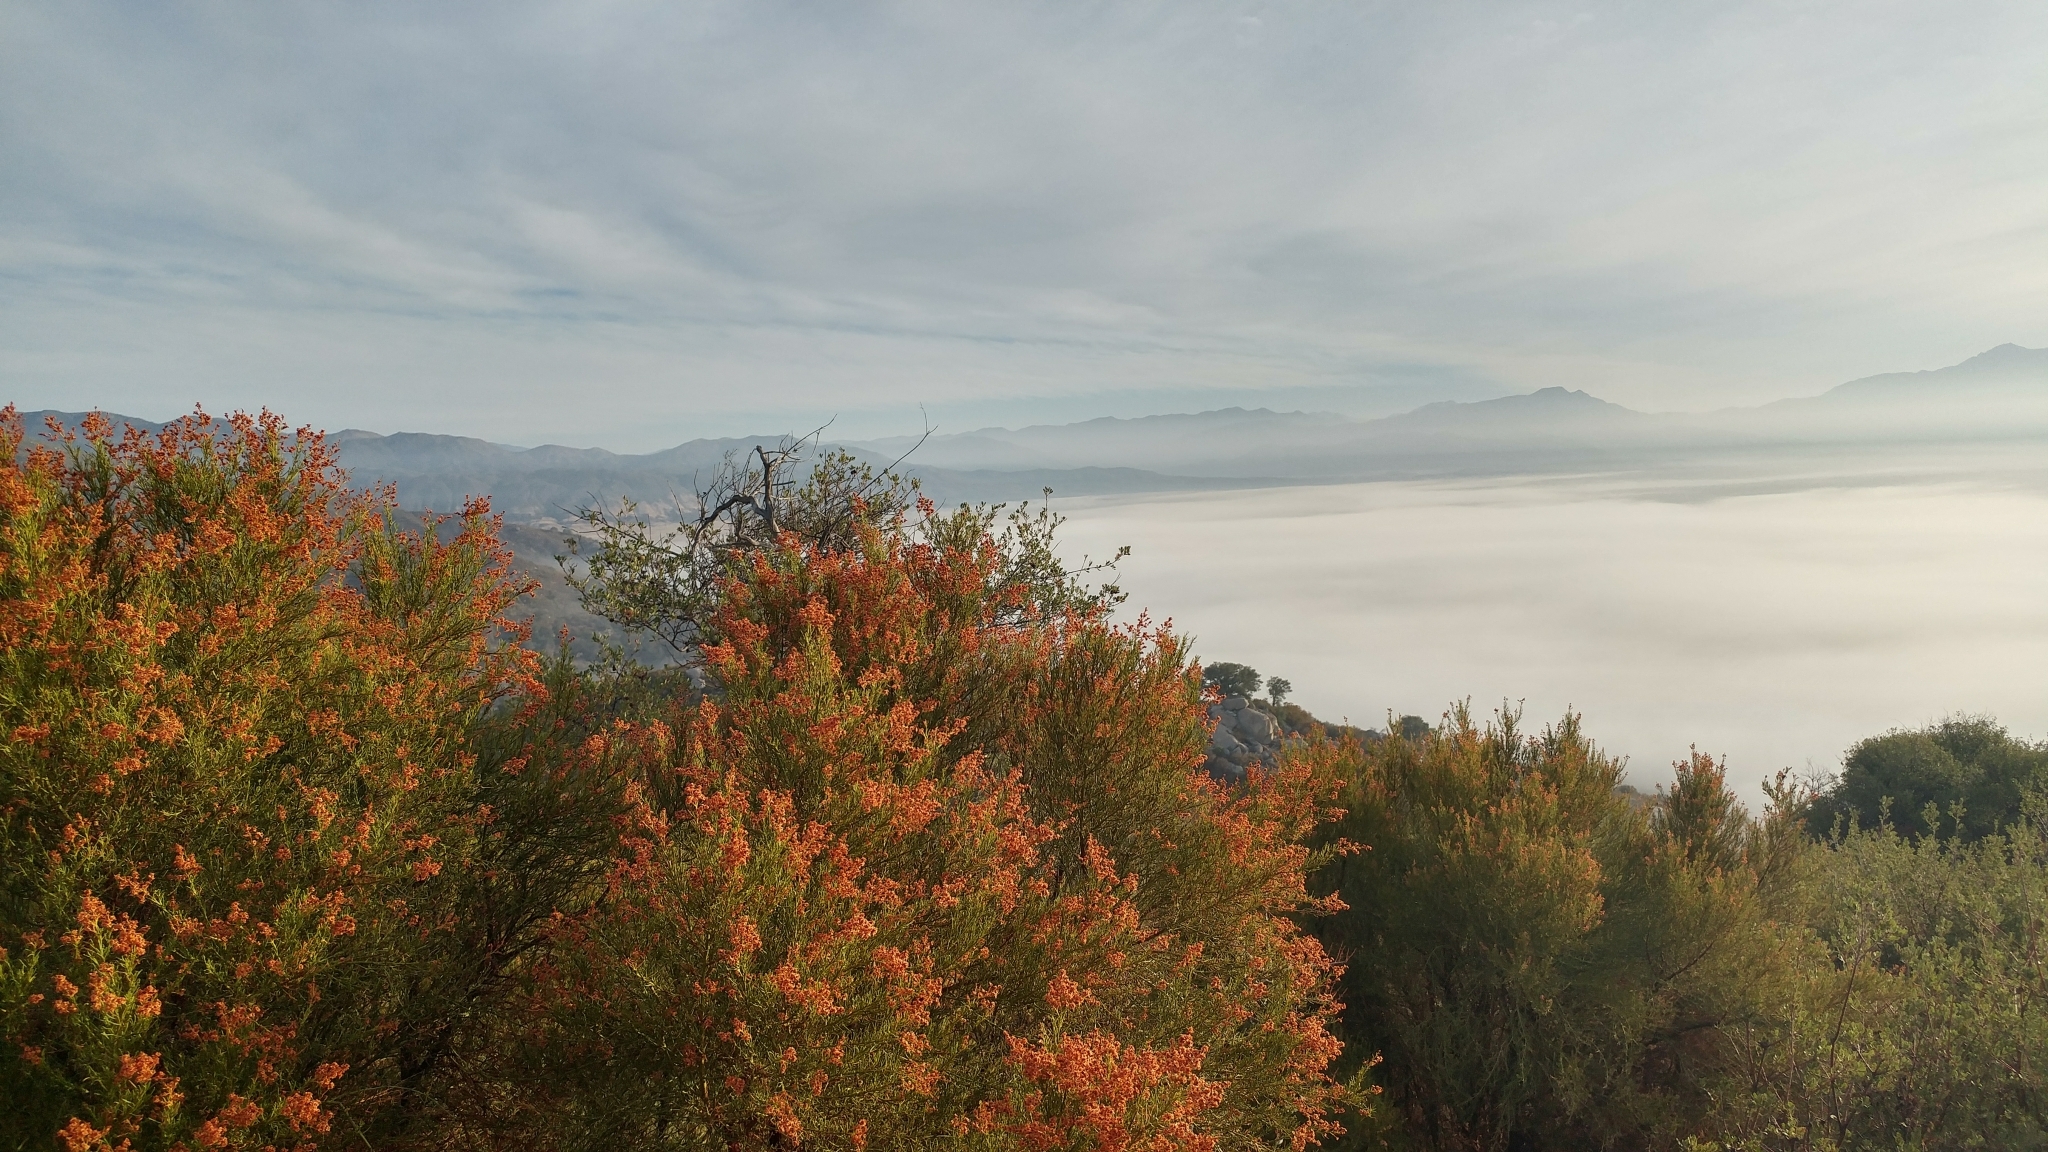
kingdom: Plantae
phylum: Tracheophyta
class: Magnoliopsida
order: Rosales
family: Rosaceae
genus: Adenostoma
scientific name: Adenostoma sparsifolium
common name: Red shank
